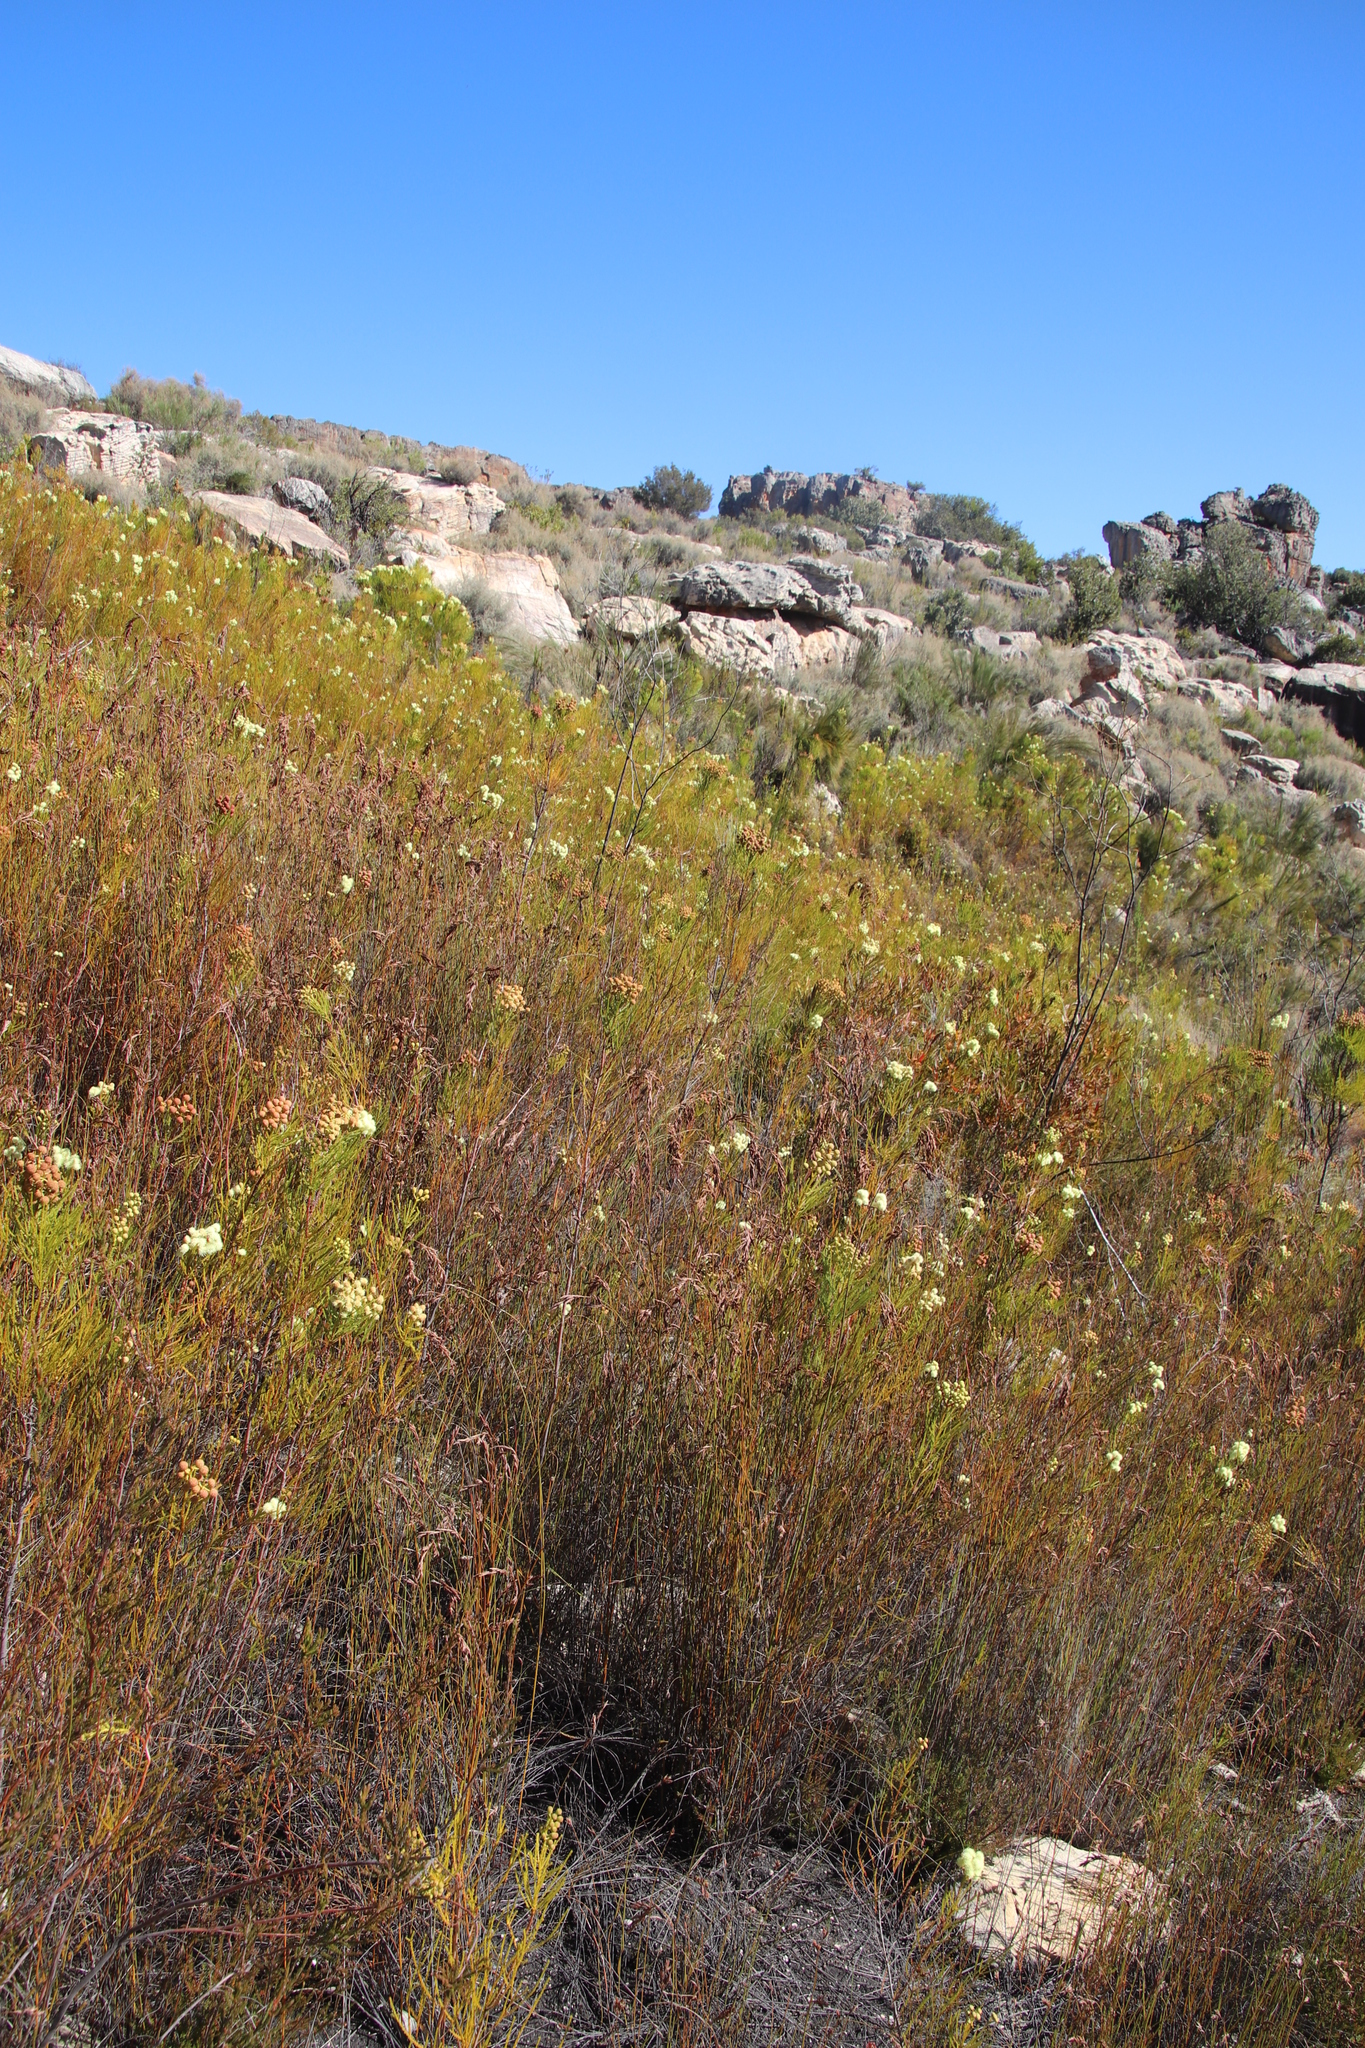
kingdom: Plantae
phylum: Tracheophyta
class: Magnoliopsida
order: Bruniales
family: Bruniaceae
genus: Berzelia
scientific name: Berzelia lanuginosa
